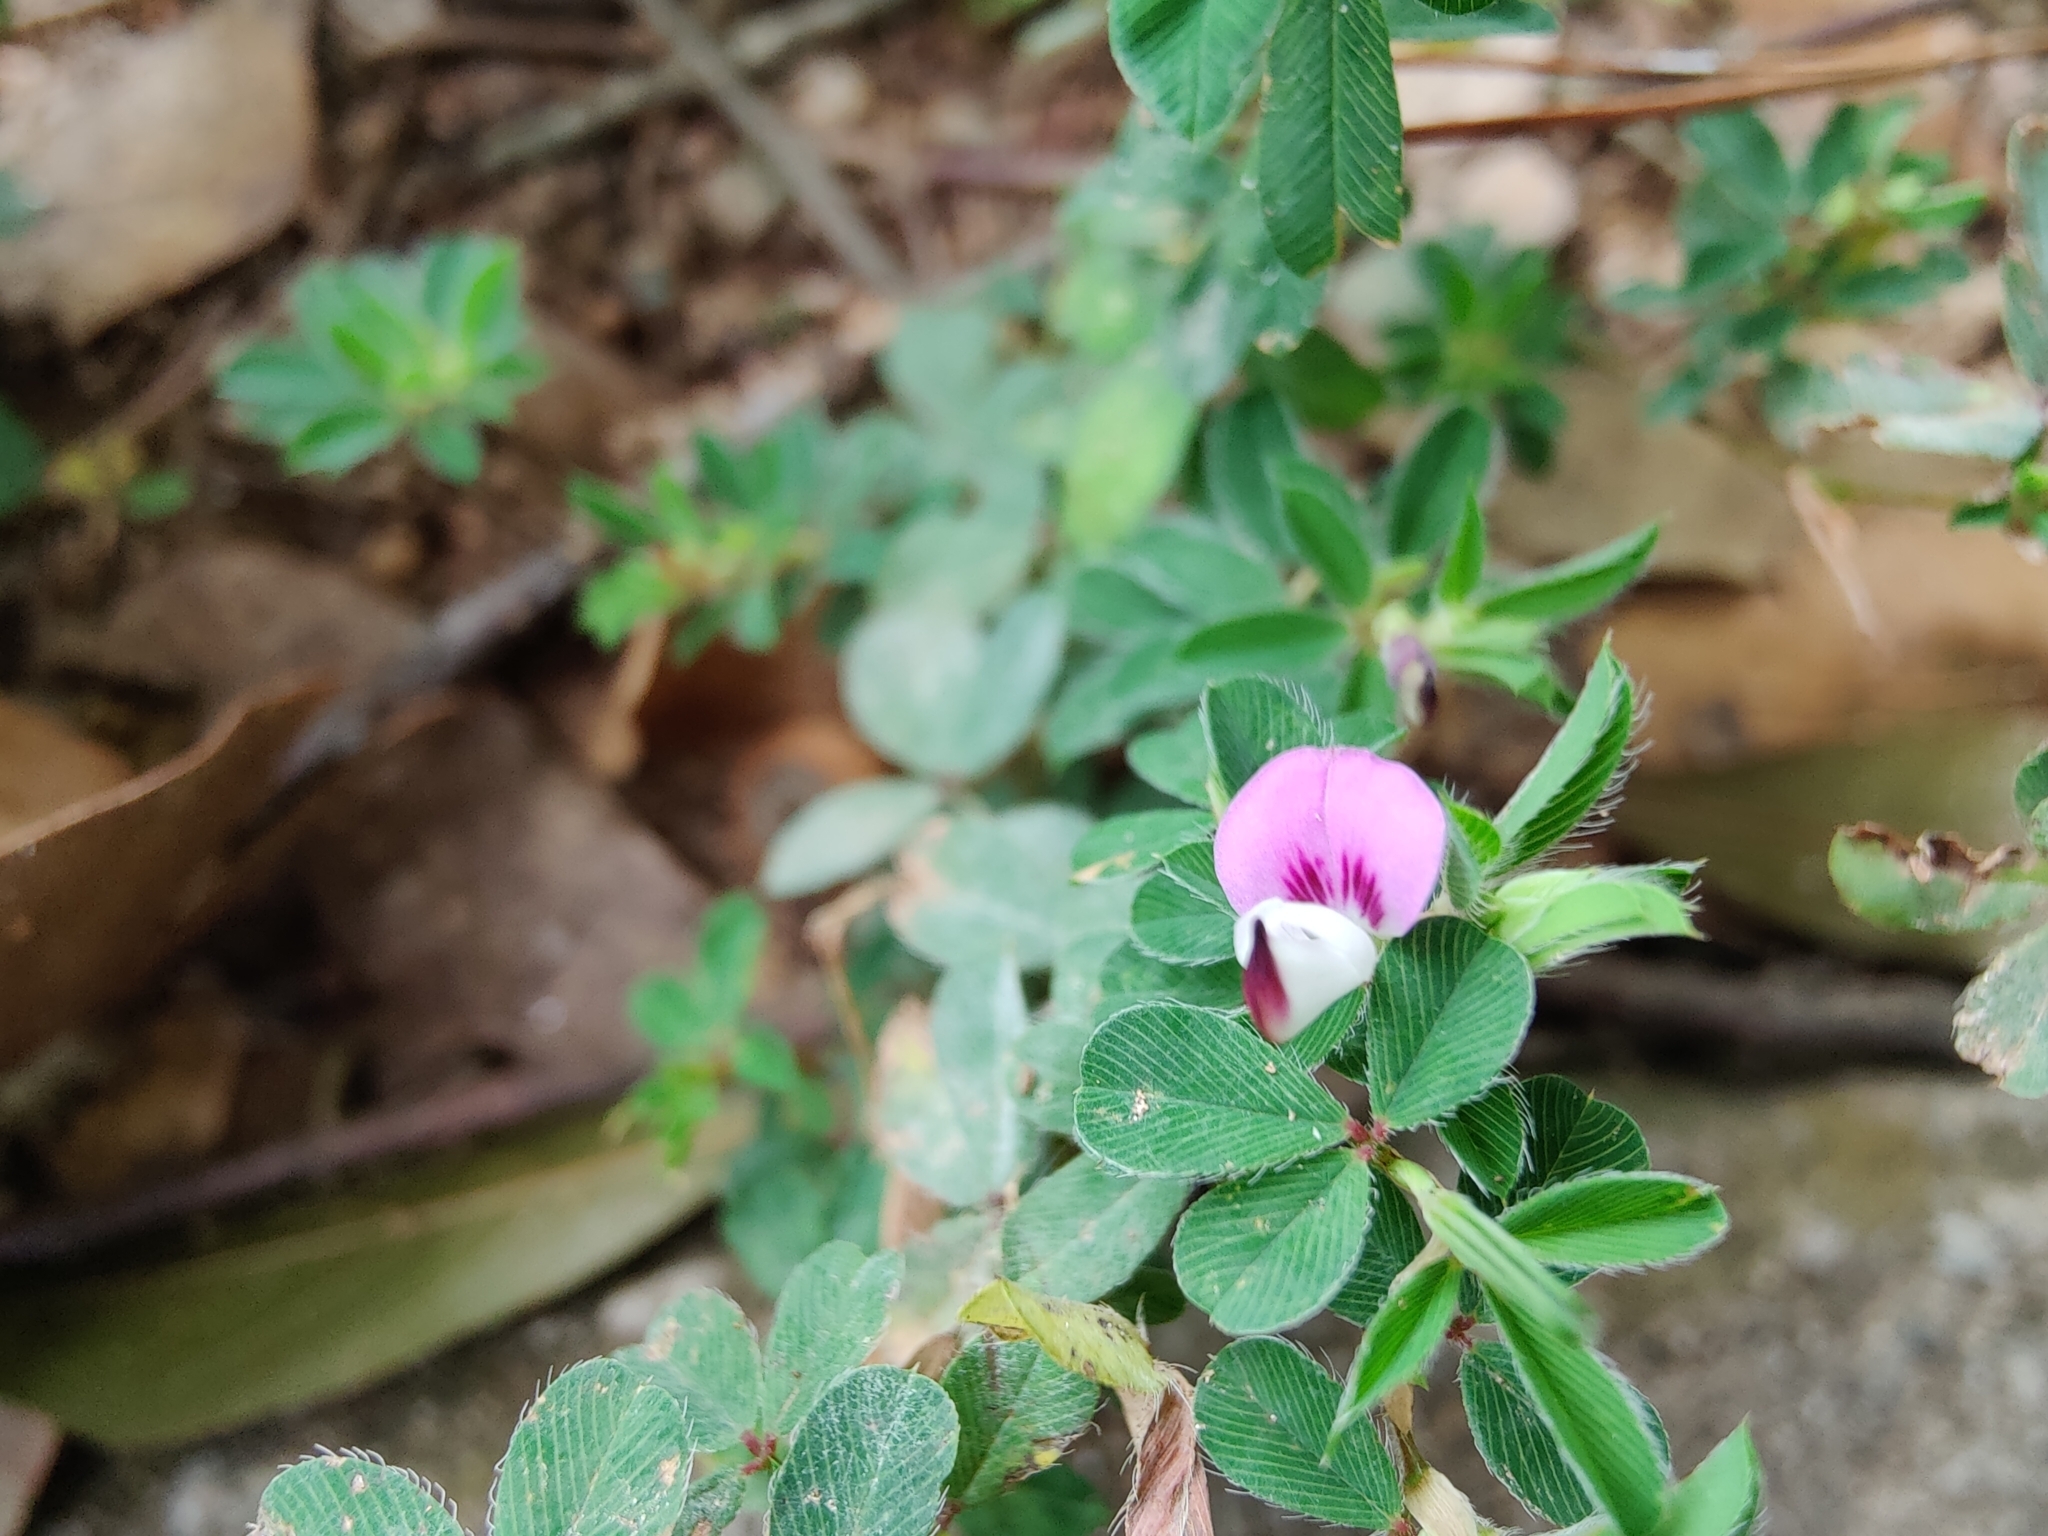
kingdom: Plantae
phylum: Tracheophyta
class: Magnoliopsida
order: Fabales
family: Fabaceae
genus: Kummerowia
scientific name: Kummerowia stipulacea
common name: Korean clover
